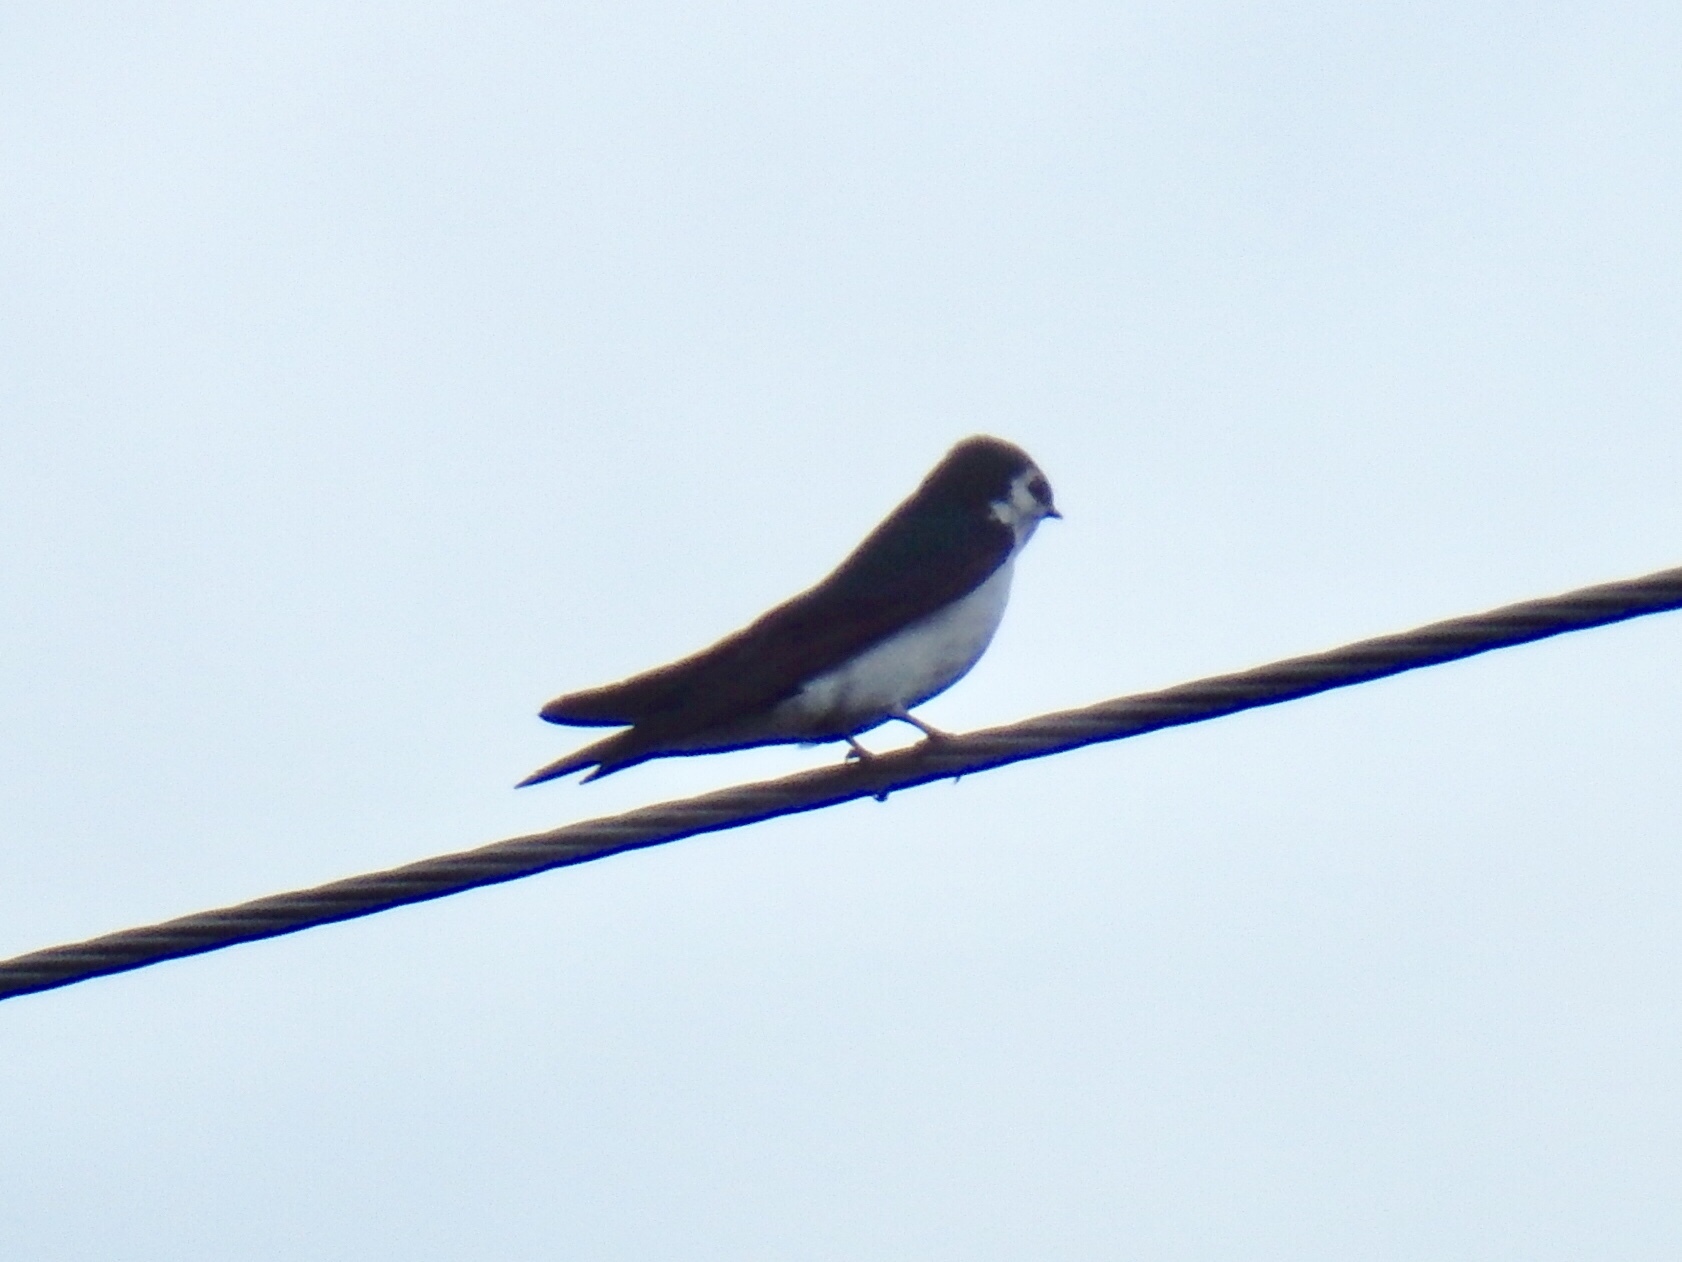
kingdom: Animalia
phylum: Chordata
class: Aves
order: Passeriformes
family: Hirundinidae
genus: Tachycineta
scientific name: Tachycineta thalassina
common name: Violet-green swallow
